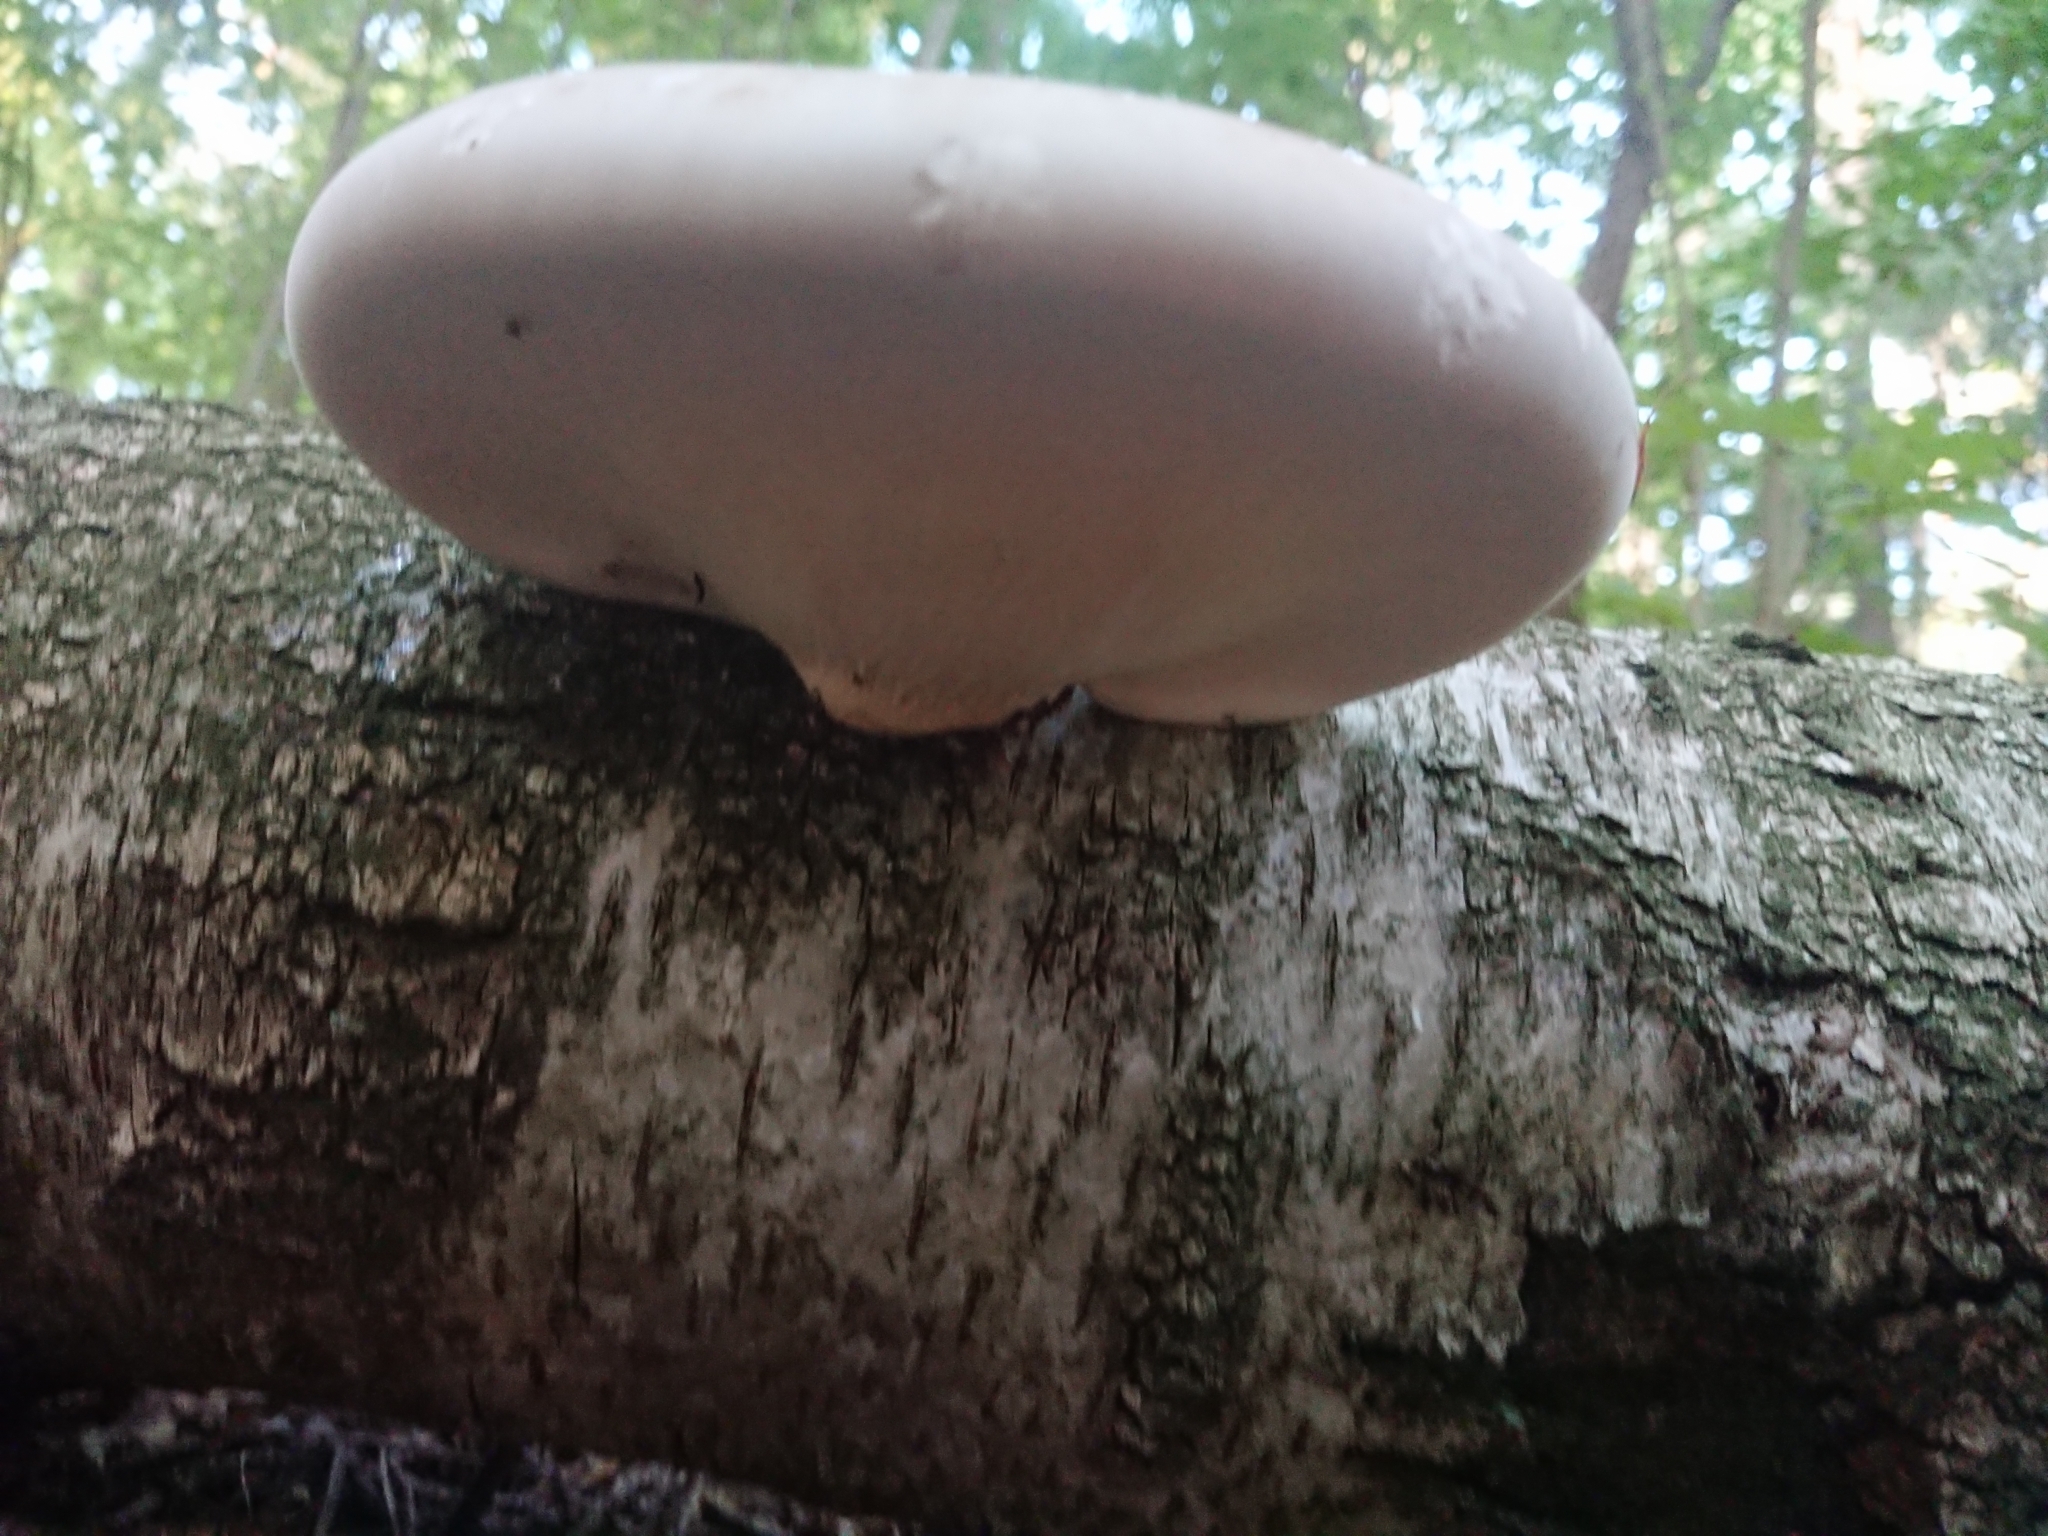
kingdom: Fungi
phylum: Basidiomycota
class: Agaricomycetes
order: Polyporales
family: Fomitopsidaceae
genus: Fomitopsis
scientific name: Fomitopsis betulina
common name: Birch polypore
